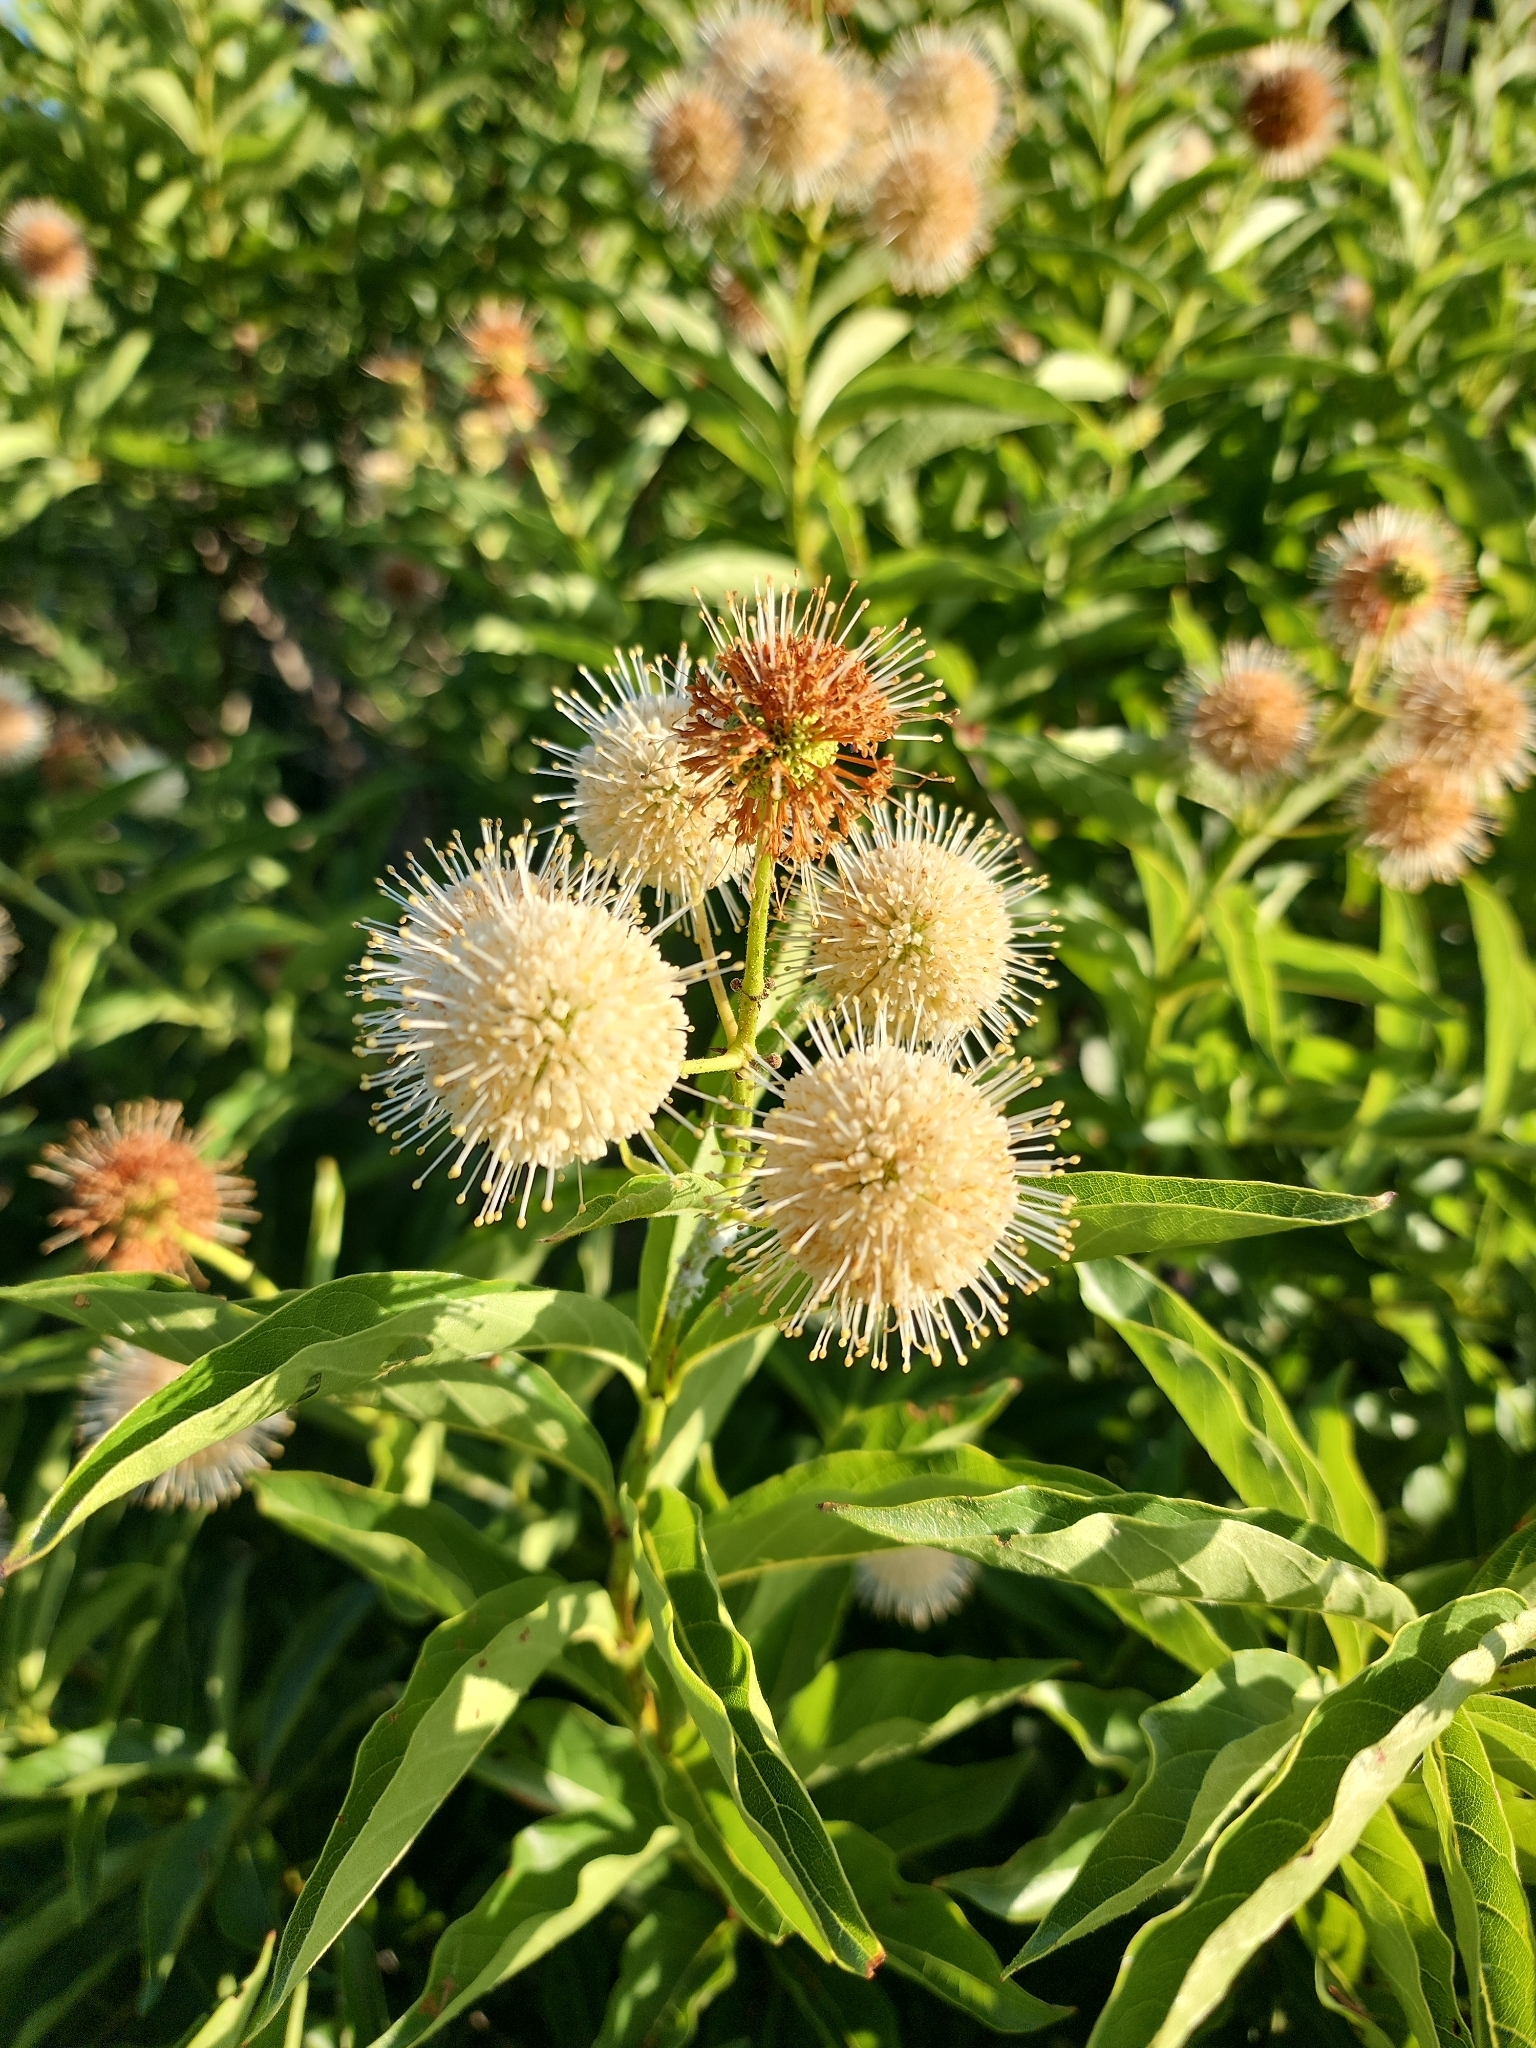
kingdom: Plantae
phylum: Tracheophyta
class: Magnoliopsida
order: Gentianales
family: Rubiaceae
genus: Cephalanthus
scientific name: Cephalanthus occidentalis
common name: Button-willow
